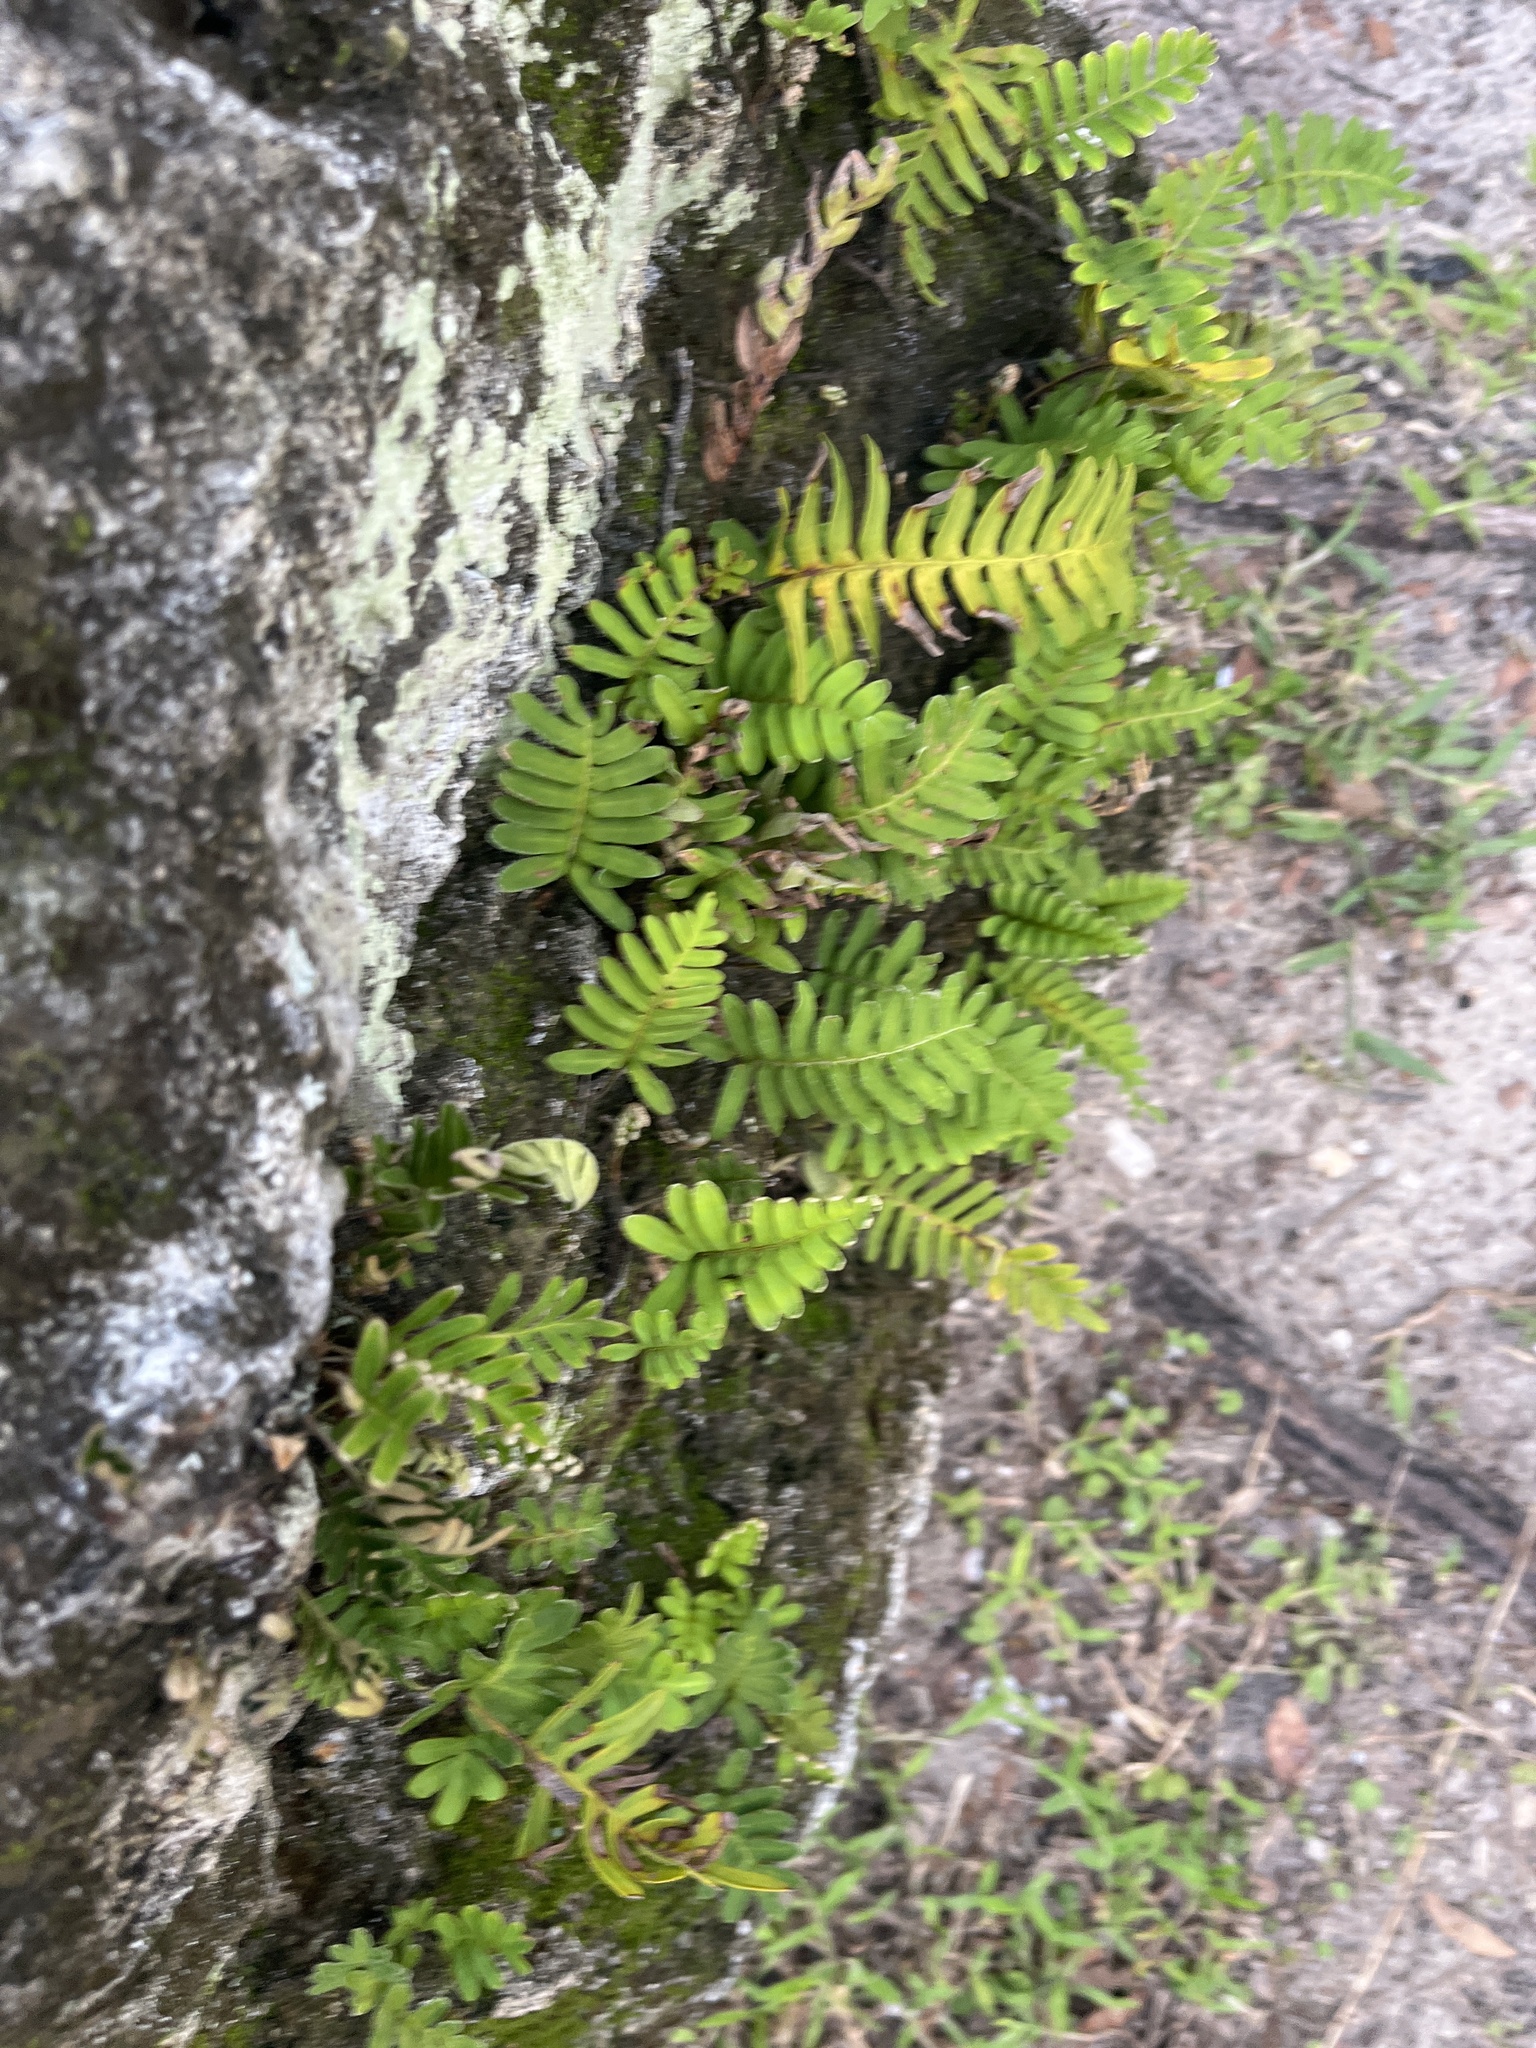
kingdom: Plantae
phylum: Tracheophyta
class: Polypodiopsida
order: Polypodiales
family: Polypodiaceae
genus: Pleopeltis
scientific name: Pleopeltis michauxiana
